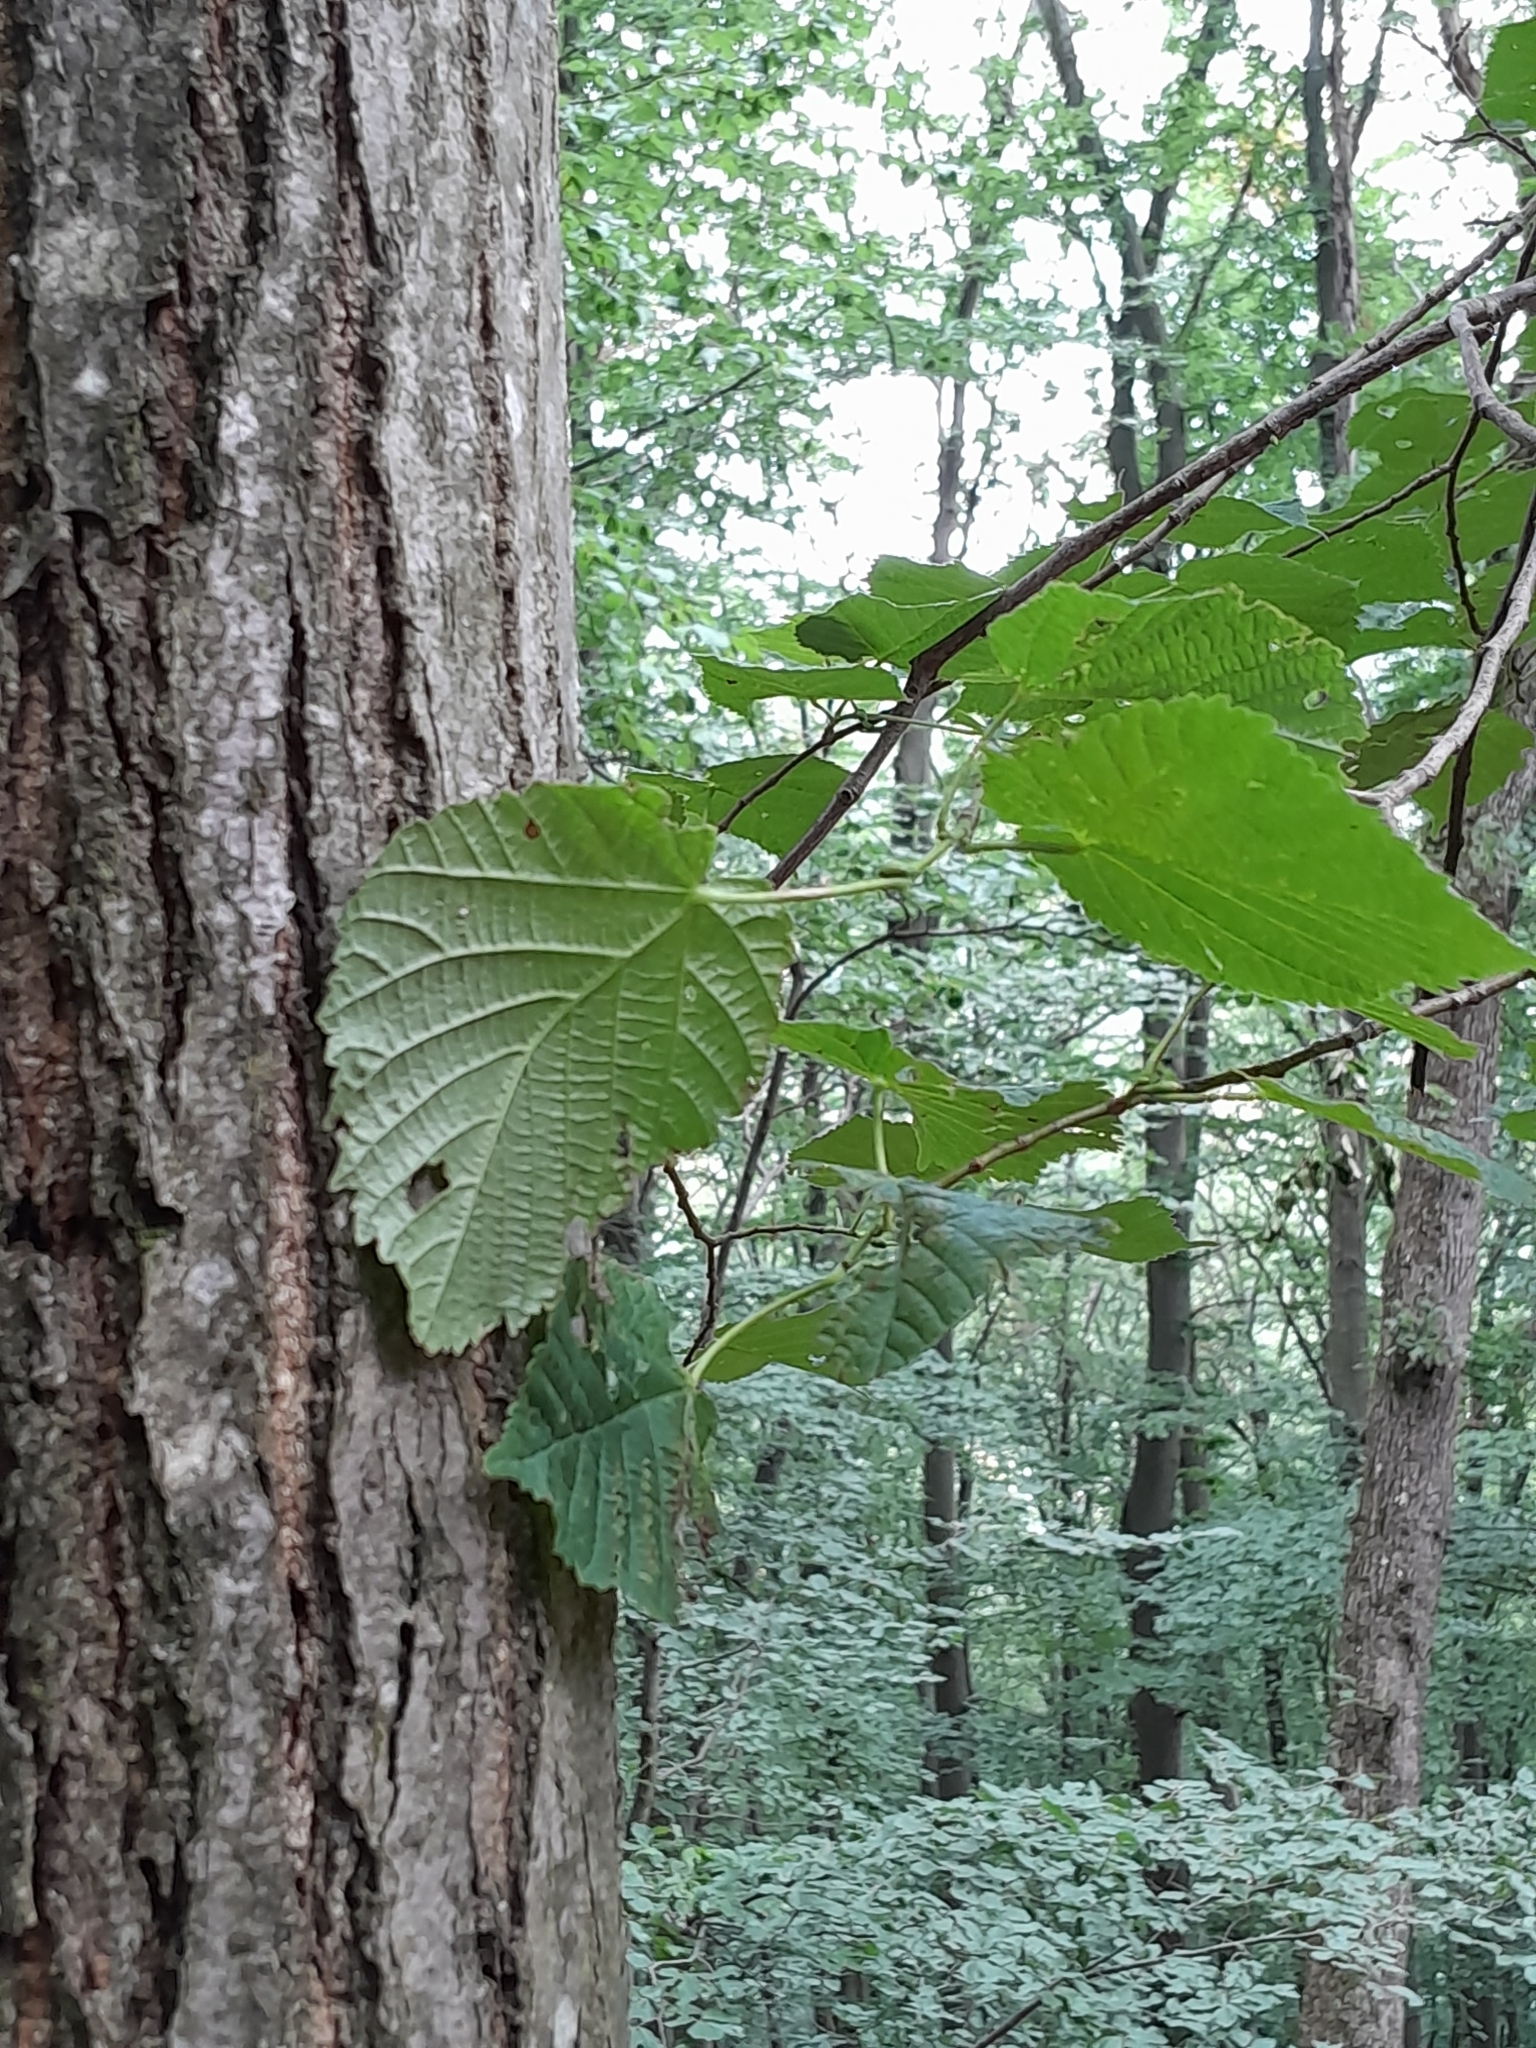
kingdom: Plantae
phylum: Tracheophyta
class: Magnoliopsida
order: Malvales
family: Malvaceae
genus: Tilia
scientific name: Tilia platyphyllos
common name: Large-leaved lime
